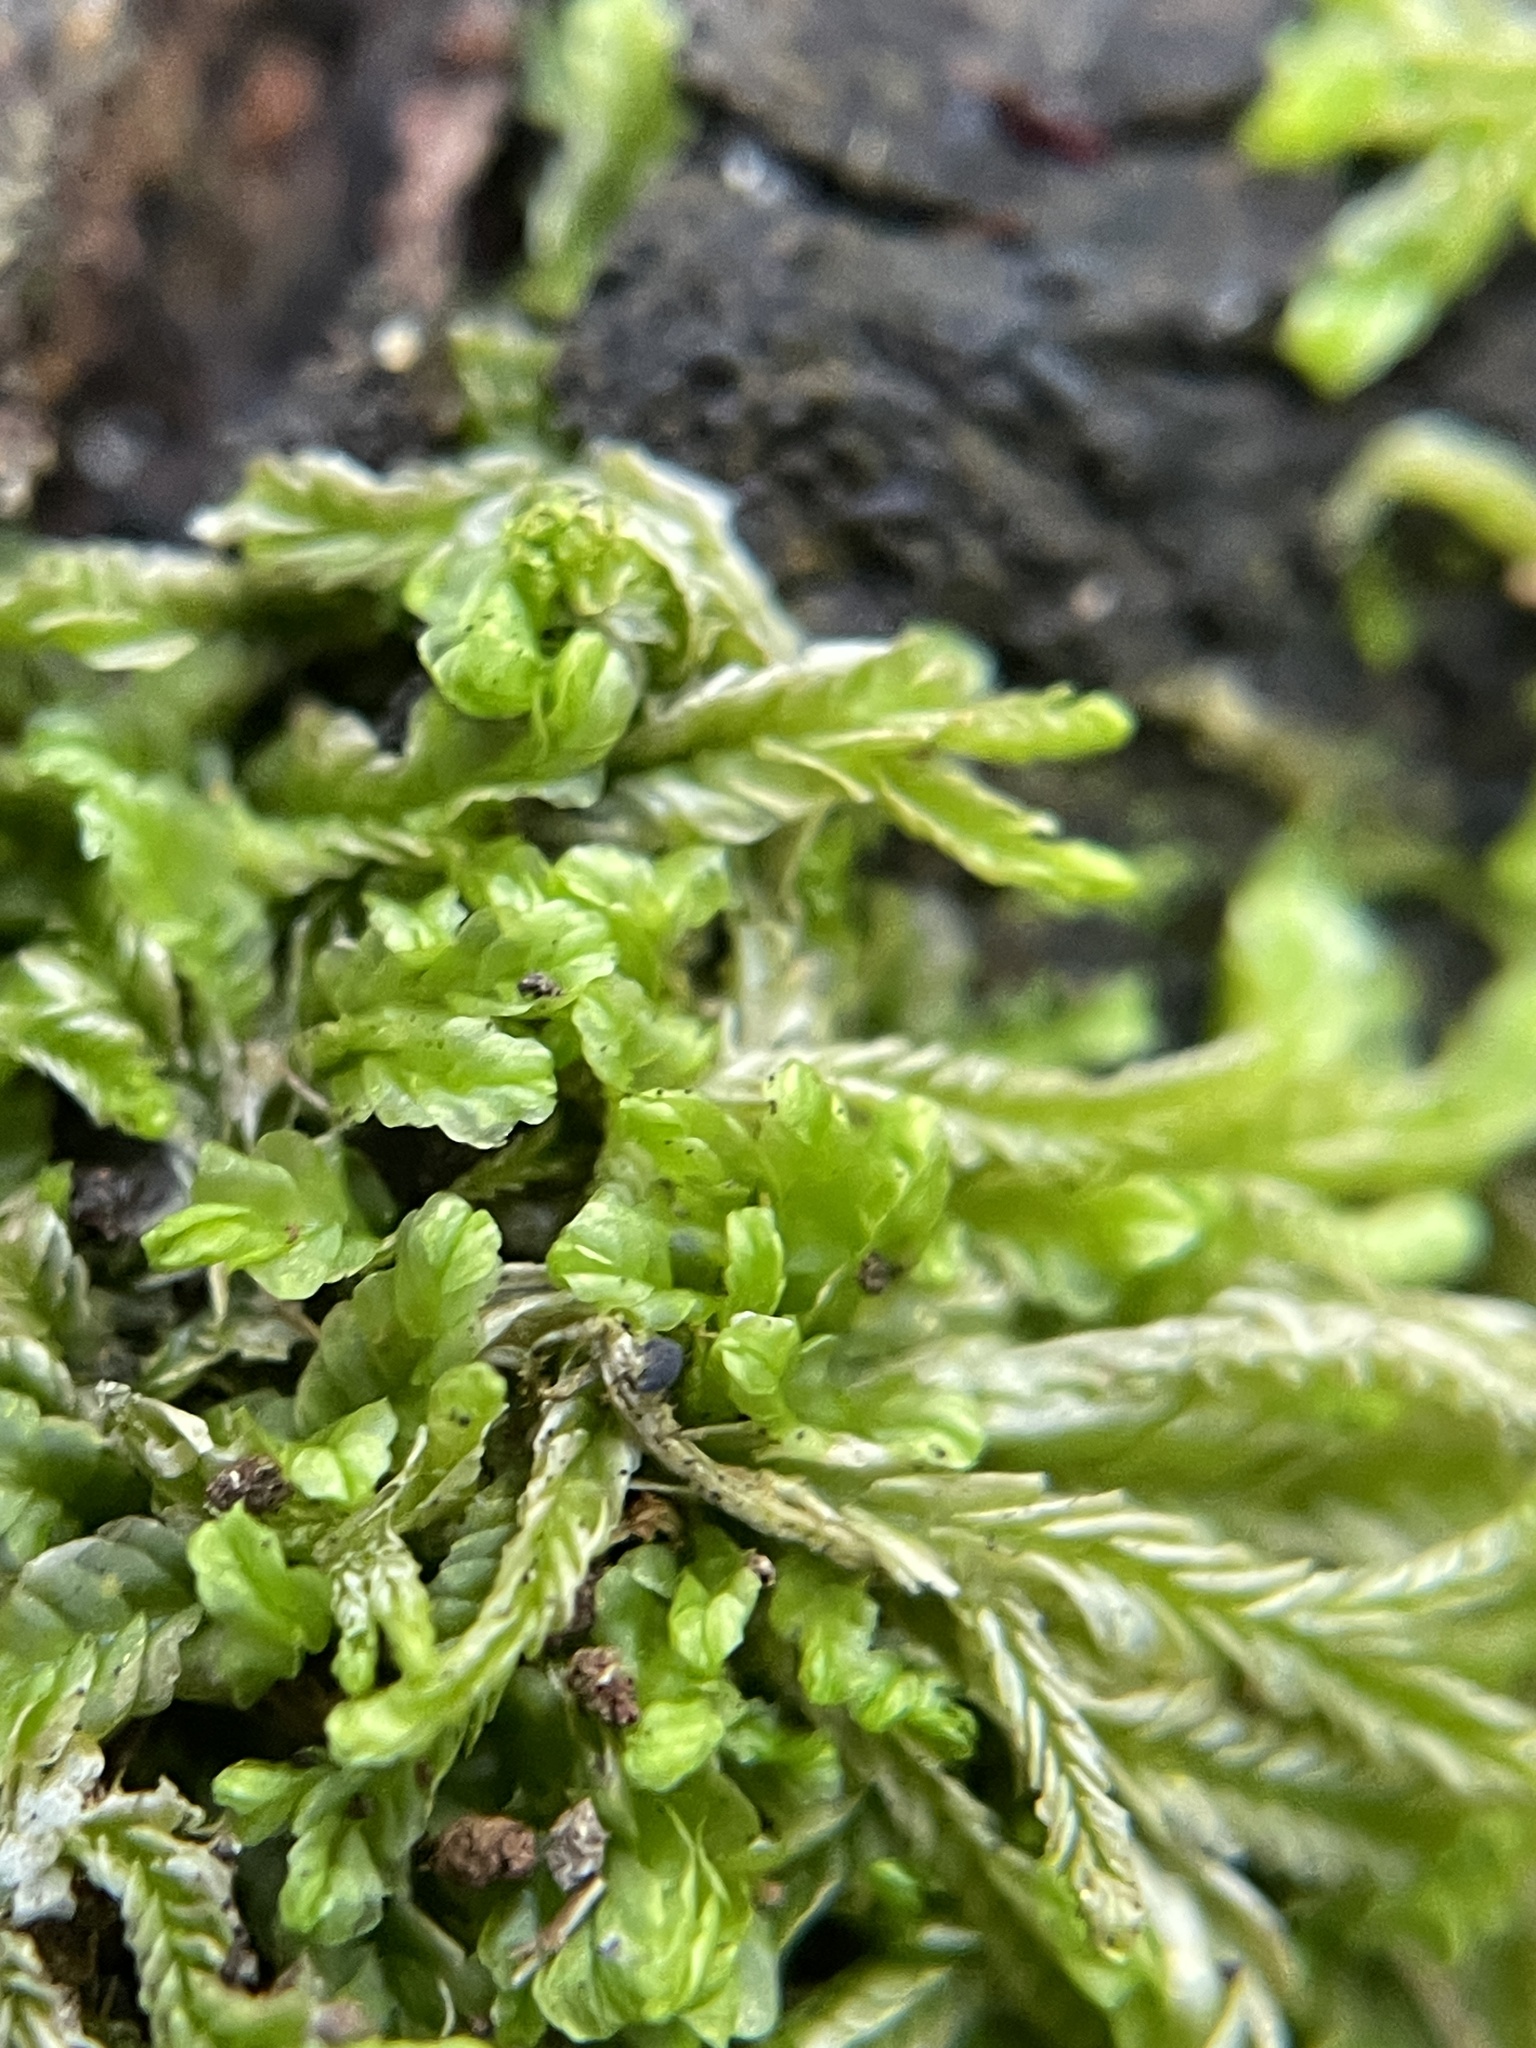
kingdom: Plantae
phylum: Marchantiophyta
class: Jungermanniopsida
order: Jungermanniales
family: Lophocoleaceae
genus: Lophocolea
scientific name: Lophocolea semiteres
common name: Southern crestwort
